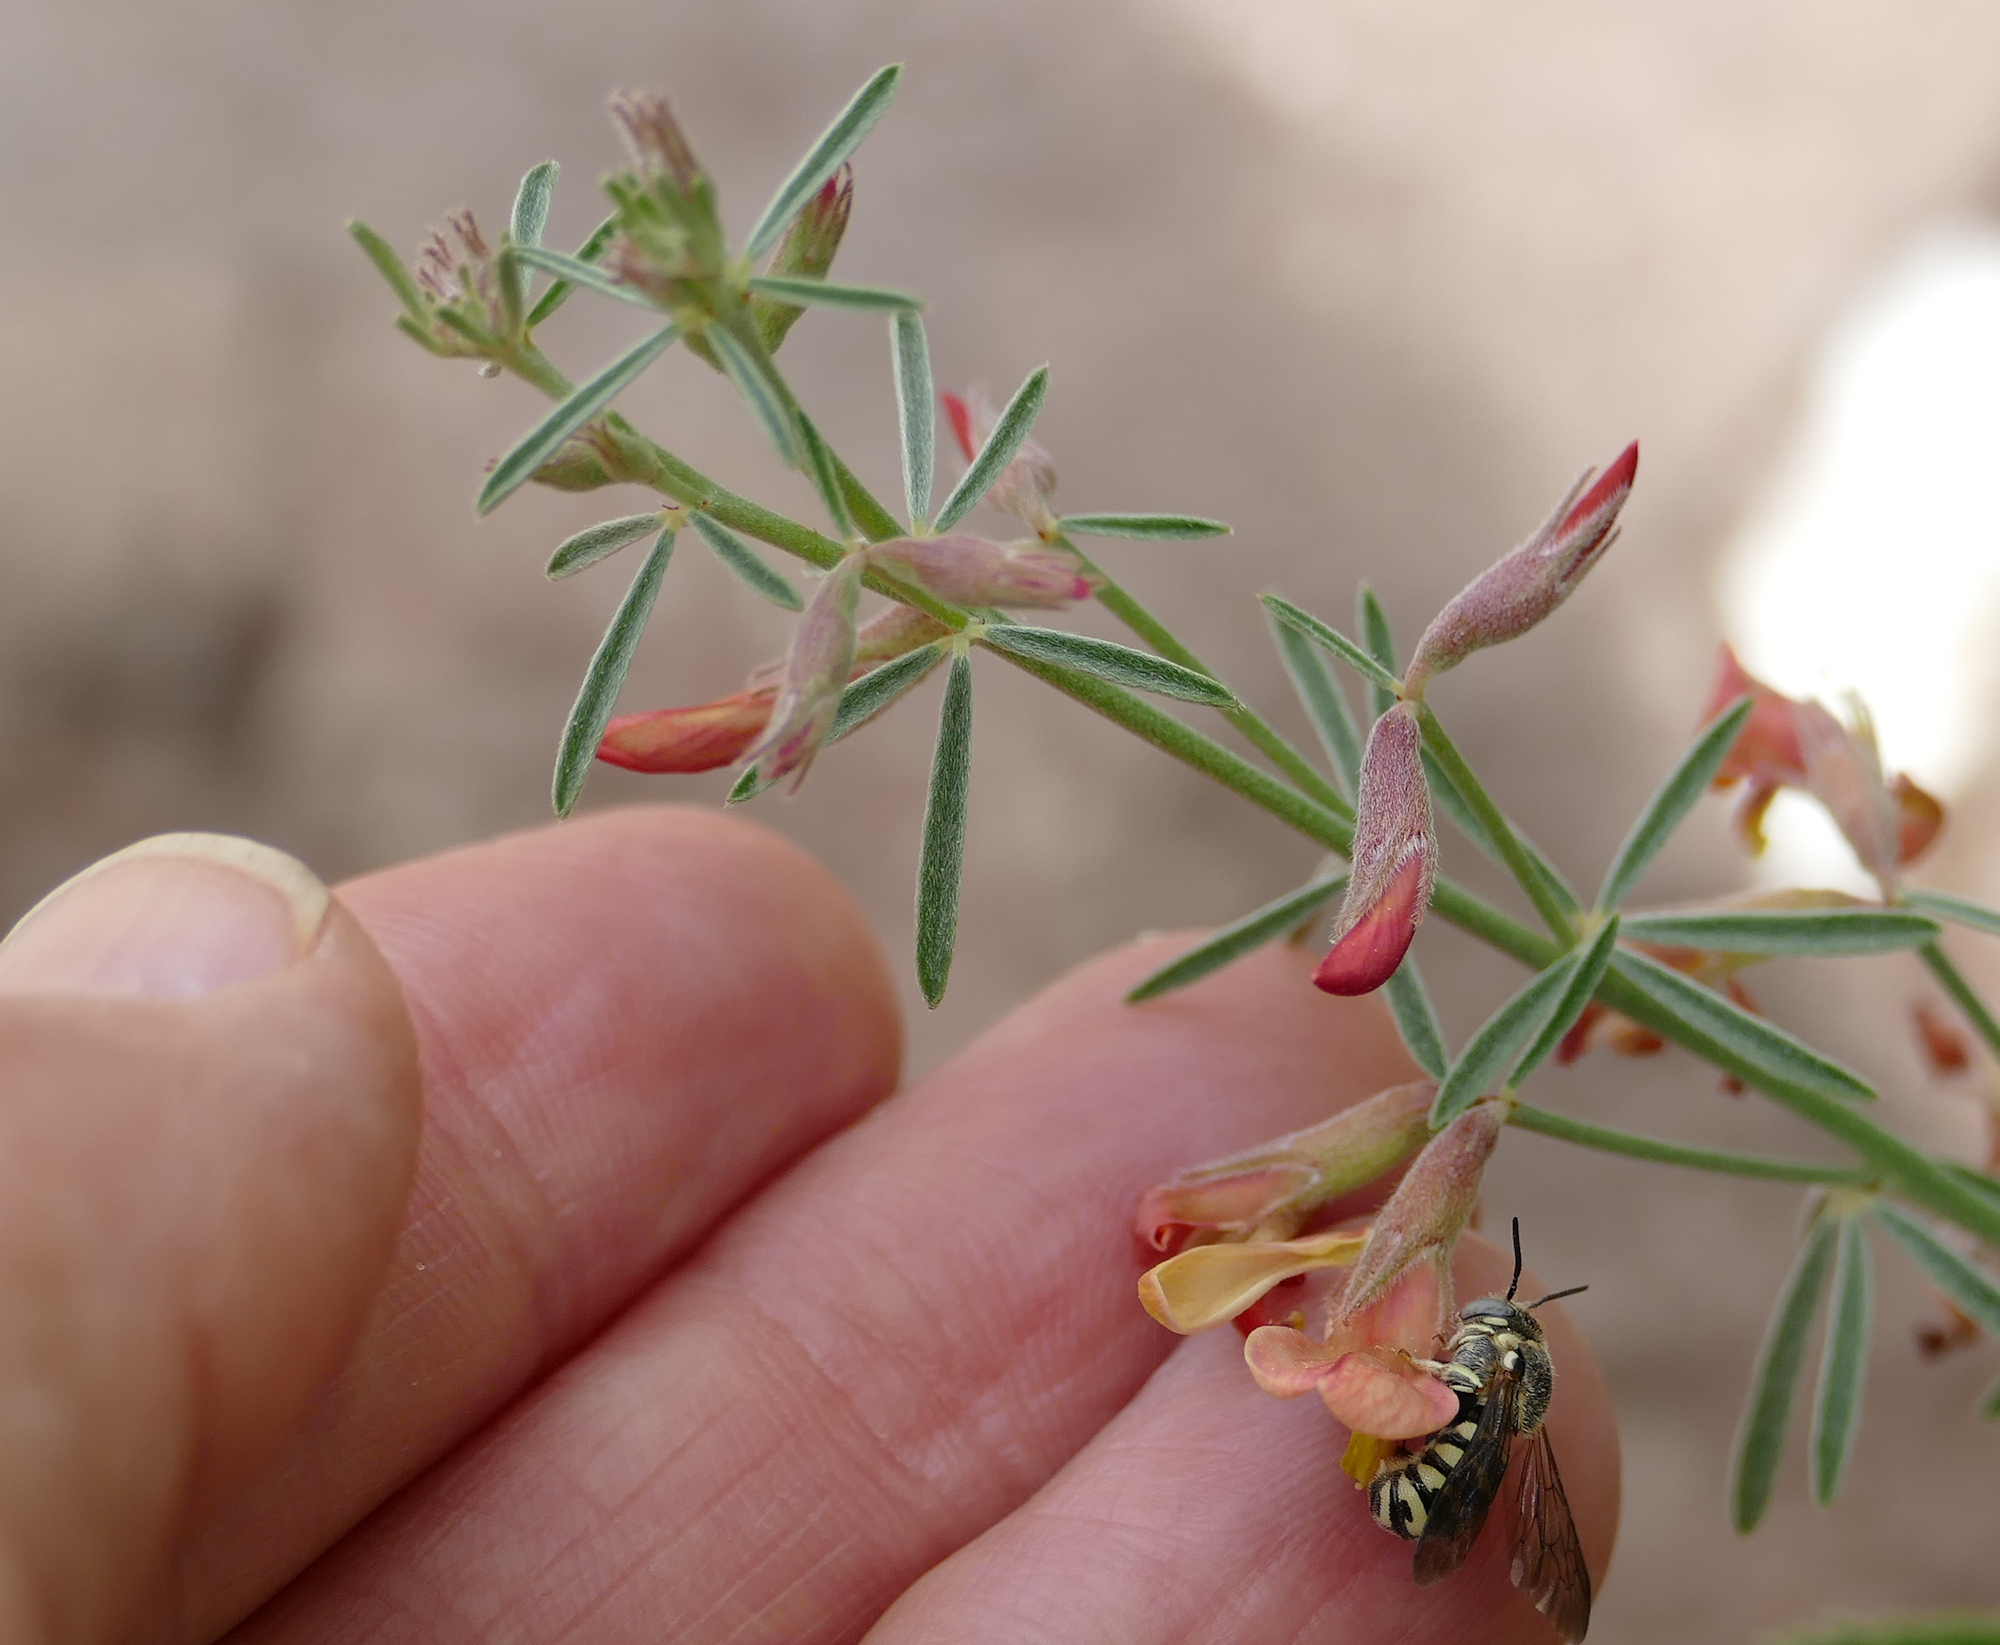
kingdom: Plantae
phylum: Tracheophyta
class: Magnoliopsida
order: Fabales
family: Fabaceae
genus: Acmispon
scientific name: Acmispon wrightii
